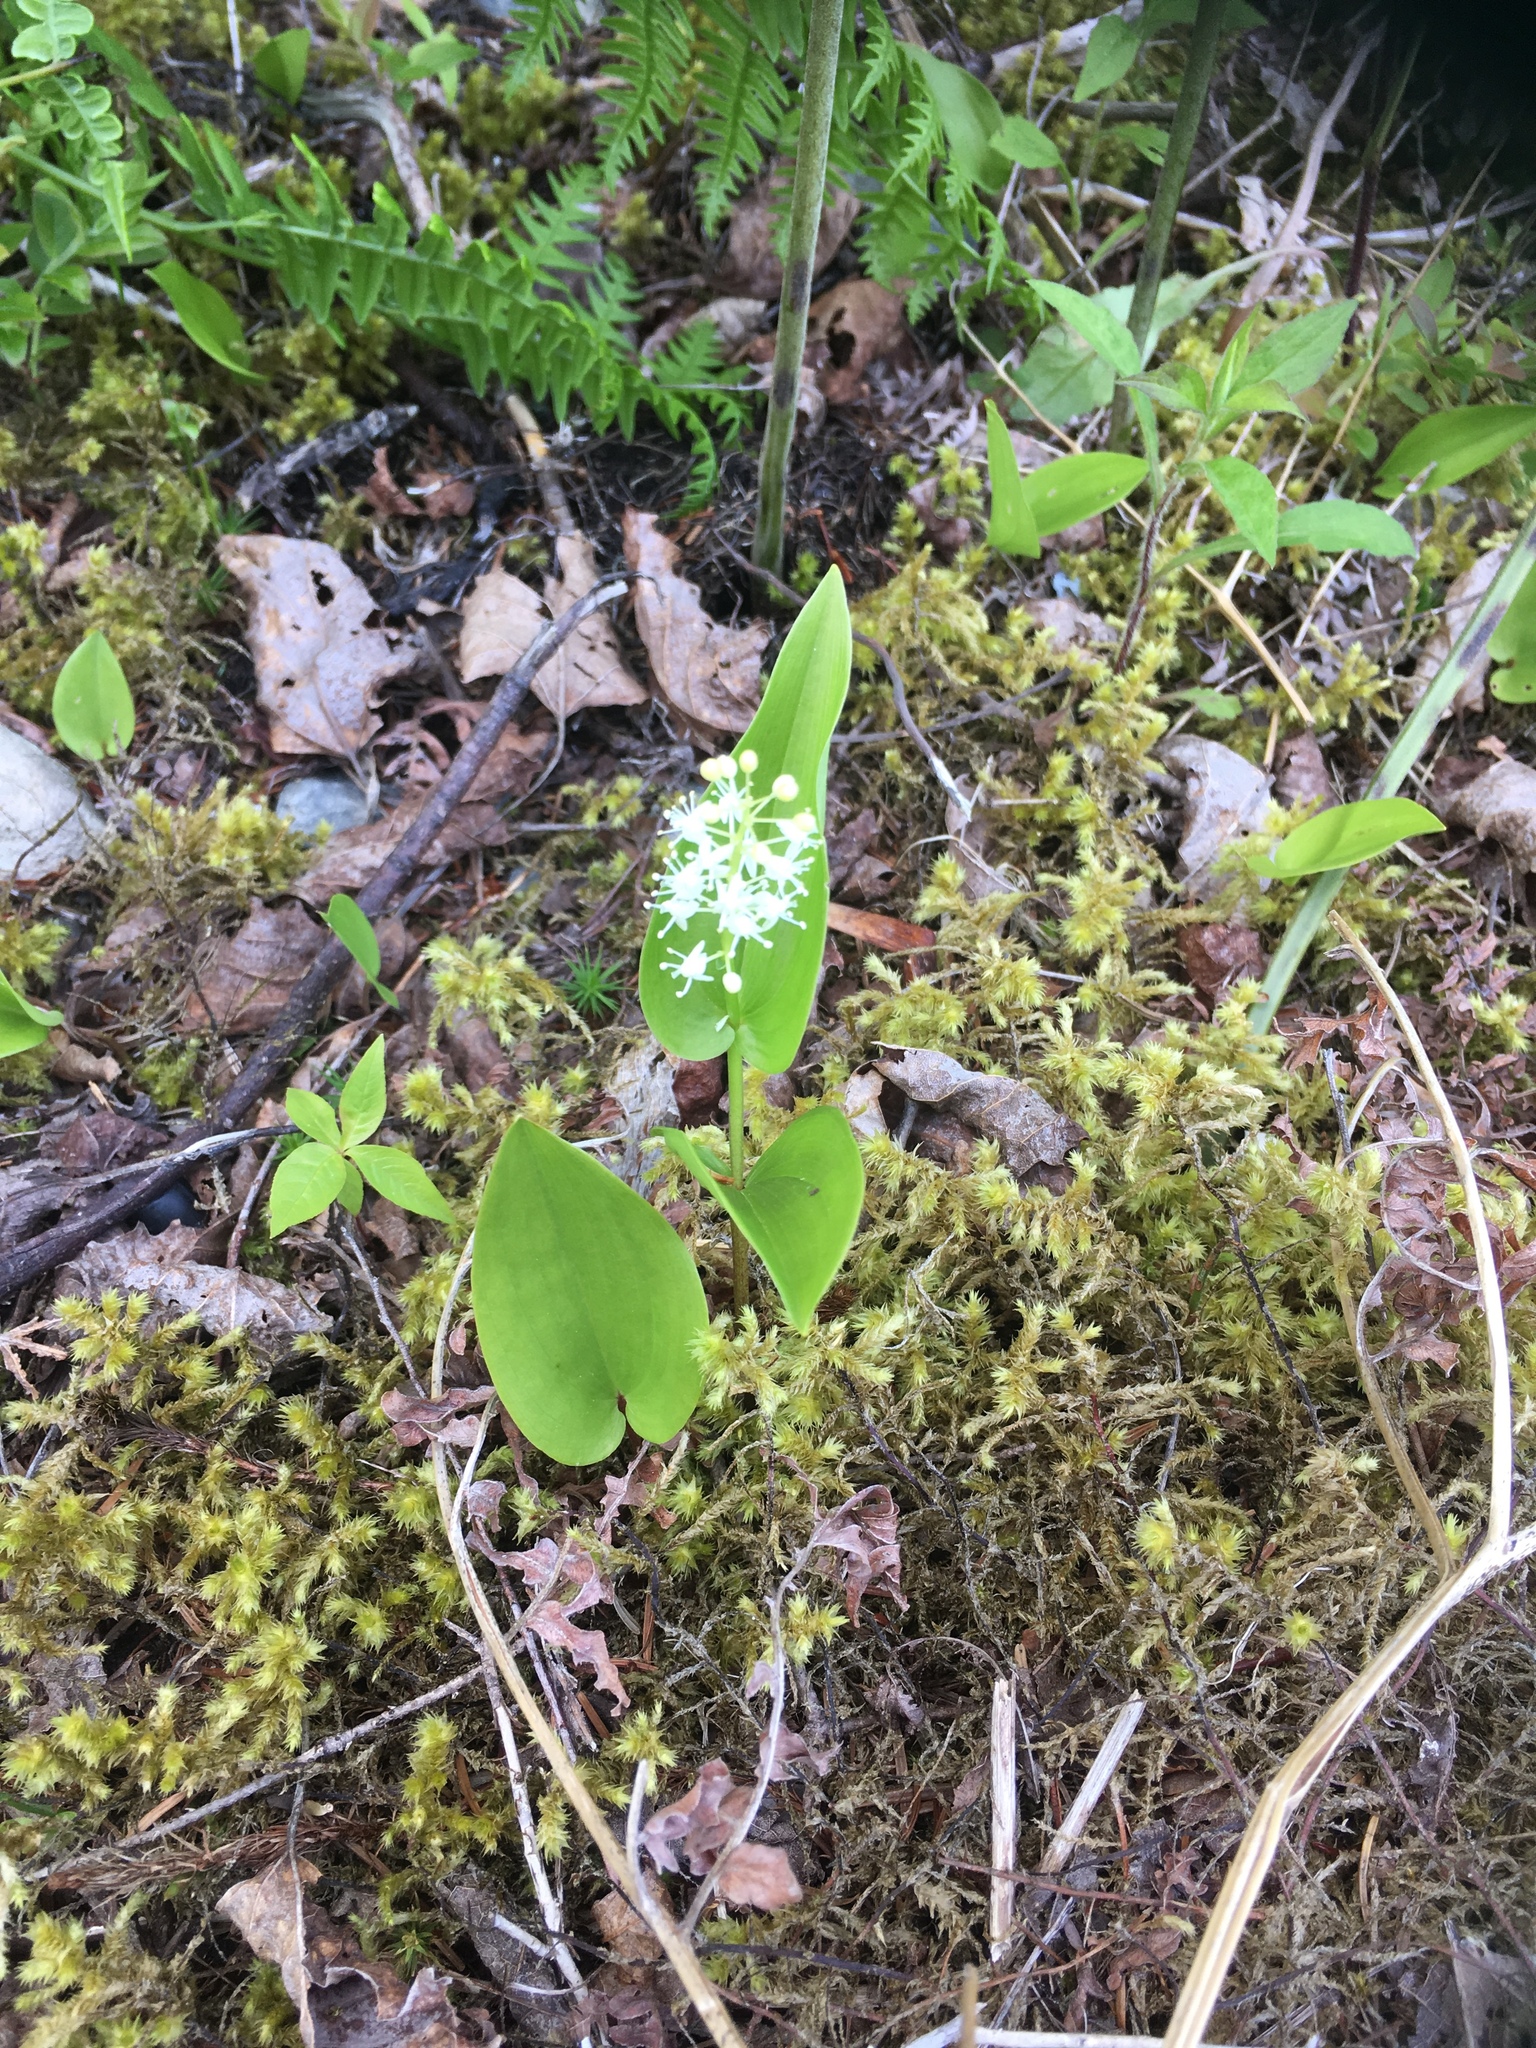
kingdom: Plantae
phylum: Tracheophyta
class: Liliopsida
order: Asparagales
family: Asparagaceae
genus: Maianthemum
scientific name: Maianthemum canadense
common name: False lily-of-the-valley
